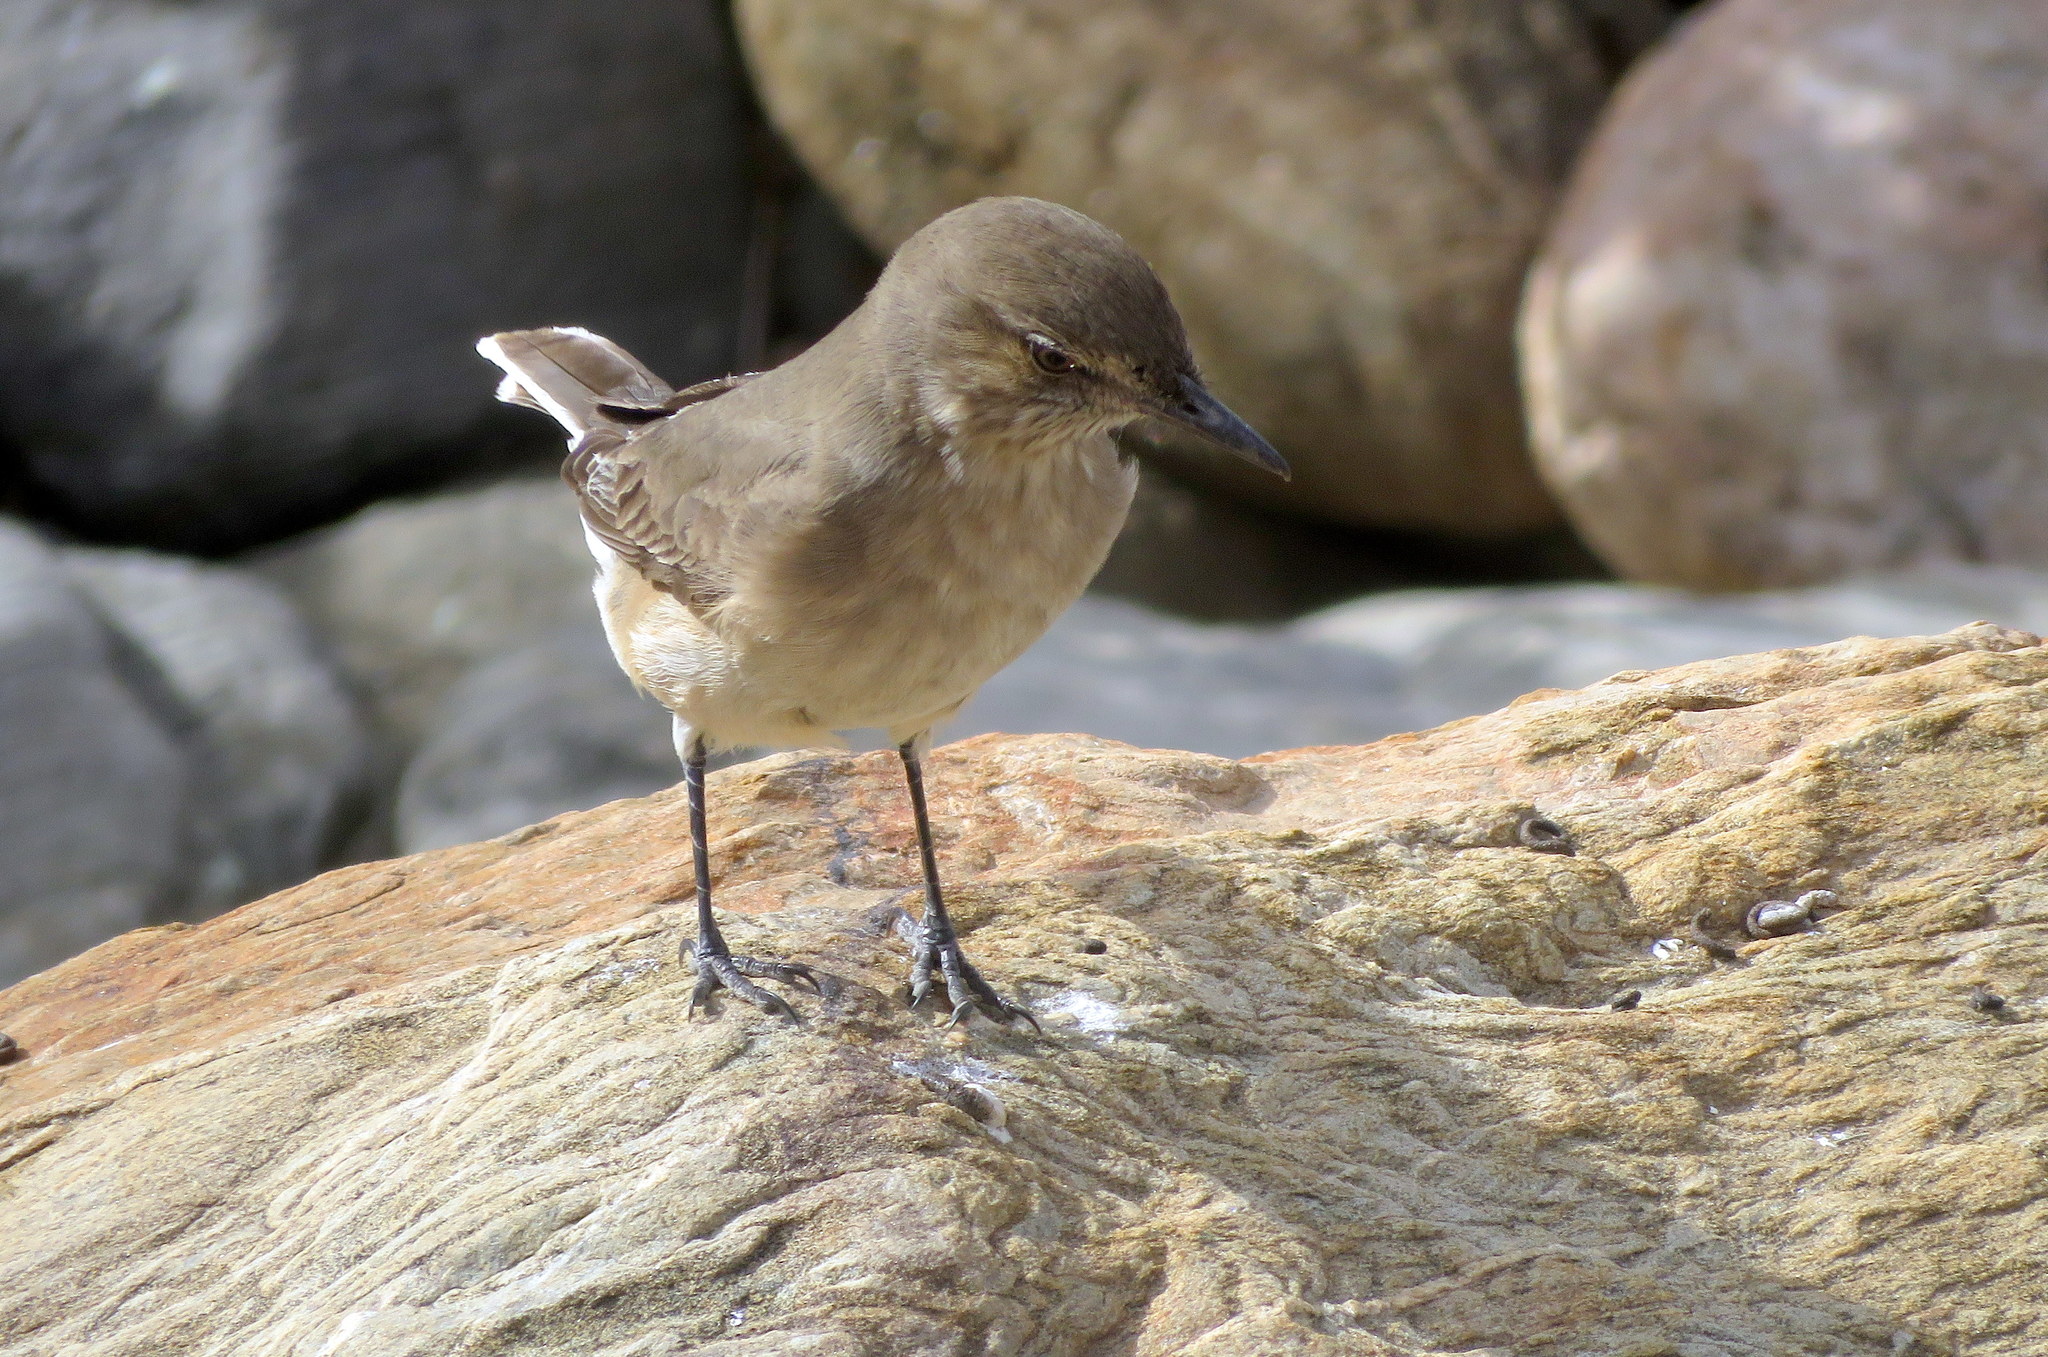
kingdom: Animalia
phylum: Chordata
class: Aves
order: Passeriformes
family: Tyrannidae
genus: Agriornis
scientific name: Agriornis montanus
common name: Black-billed shrike-tyrant
